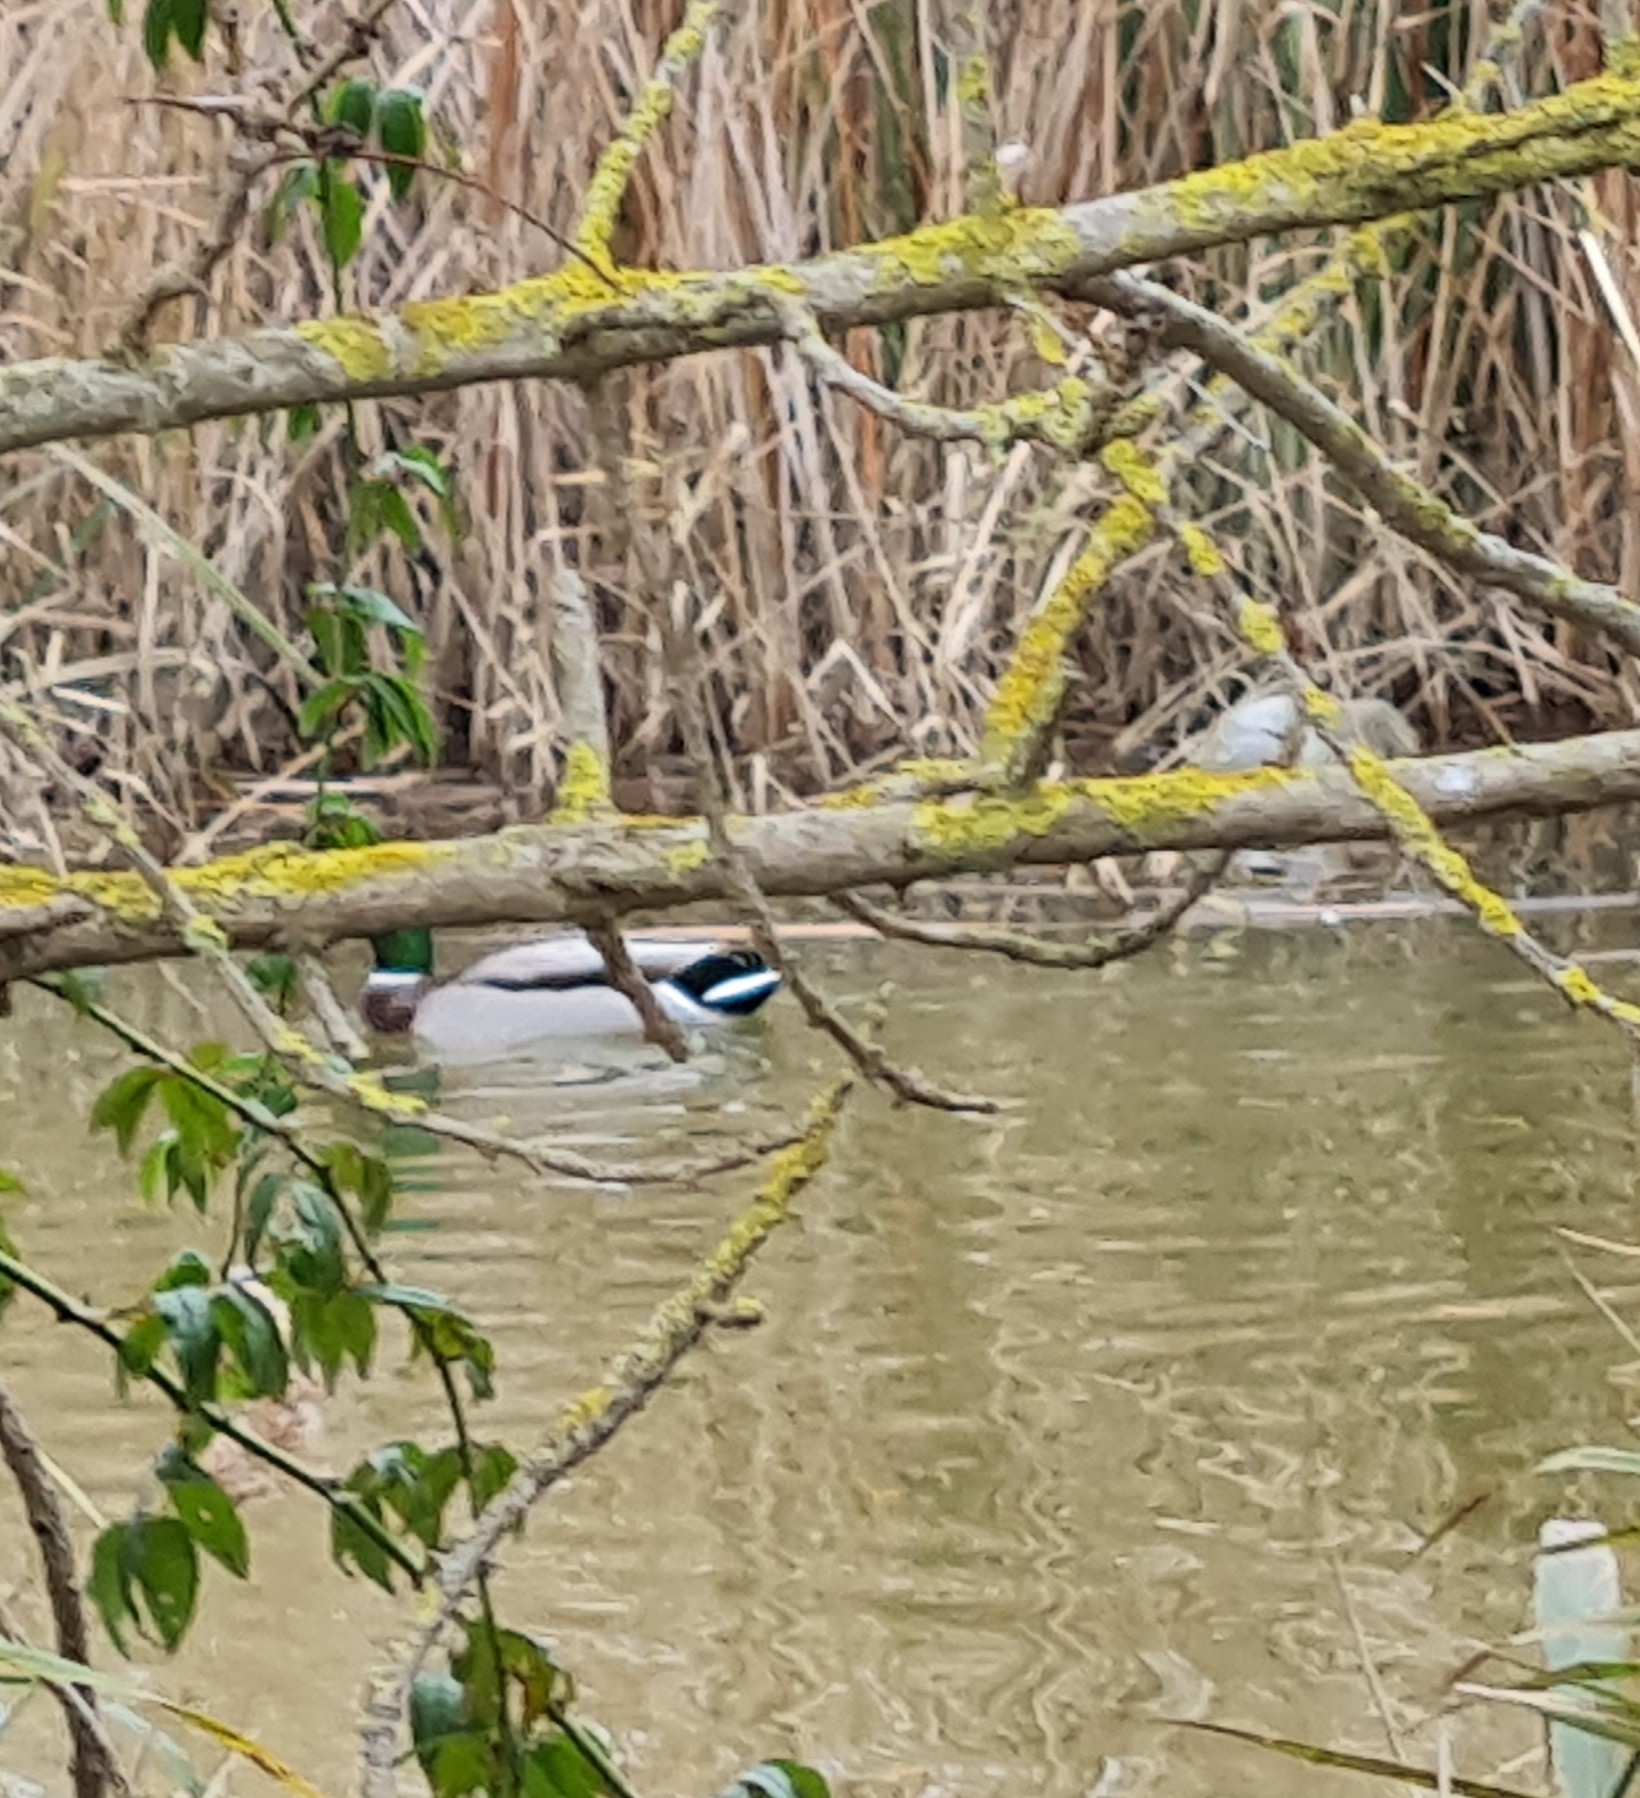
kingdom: Animalia
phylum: Chordata
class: Aves
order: Anseriformes
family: Anatidae
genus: Anas
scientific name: Anas platyrhynchos
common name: Mallard
